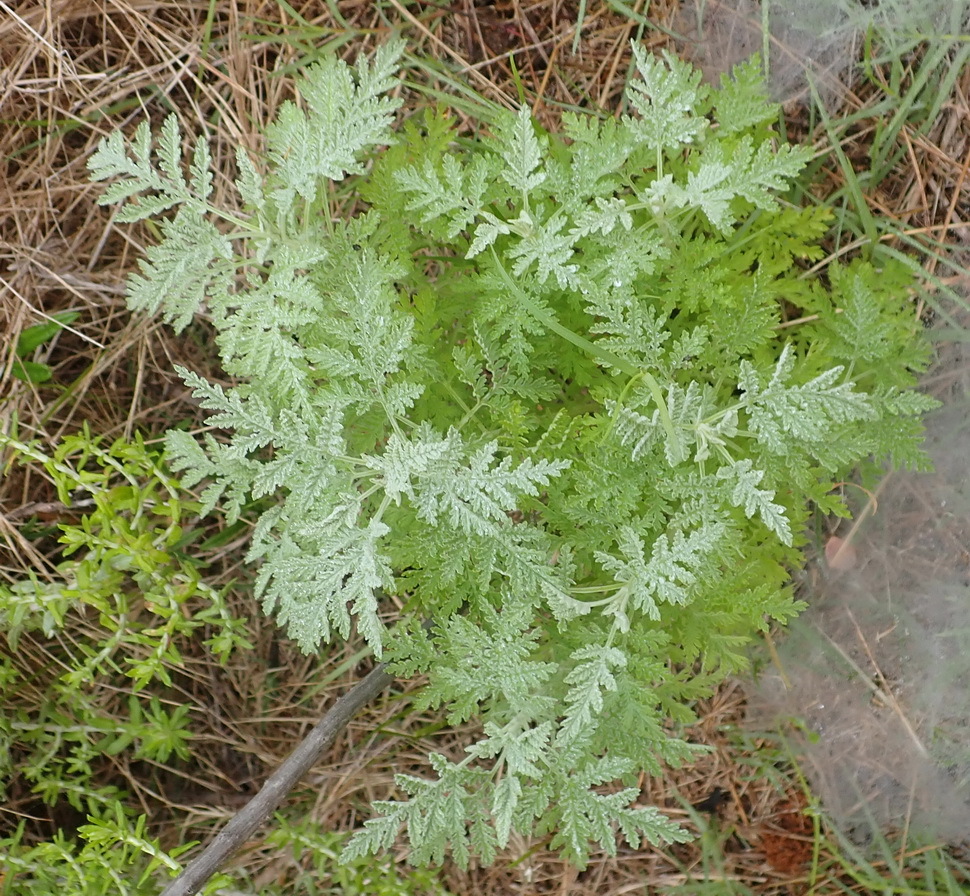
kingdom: Plantae
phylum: Tracheophyta
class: Magnoliopsida
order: Asterales
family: Asteraceae
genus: Artemisia
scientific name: Artemisia afra
